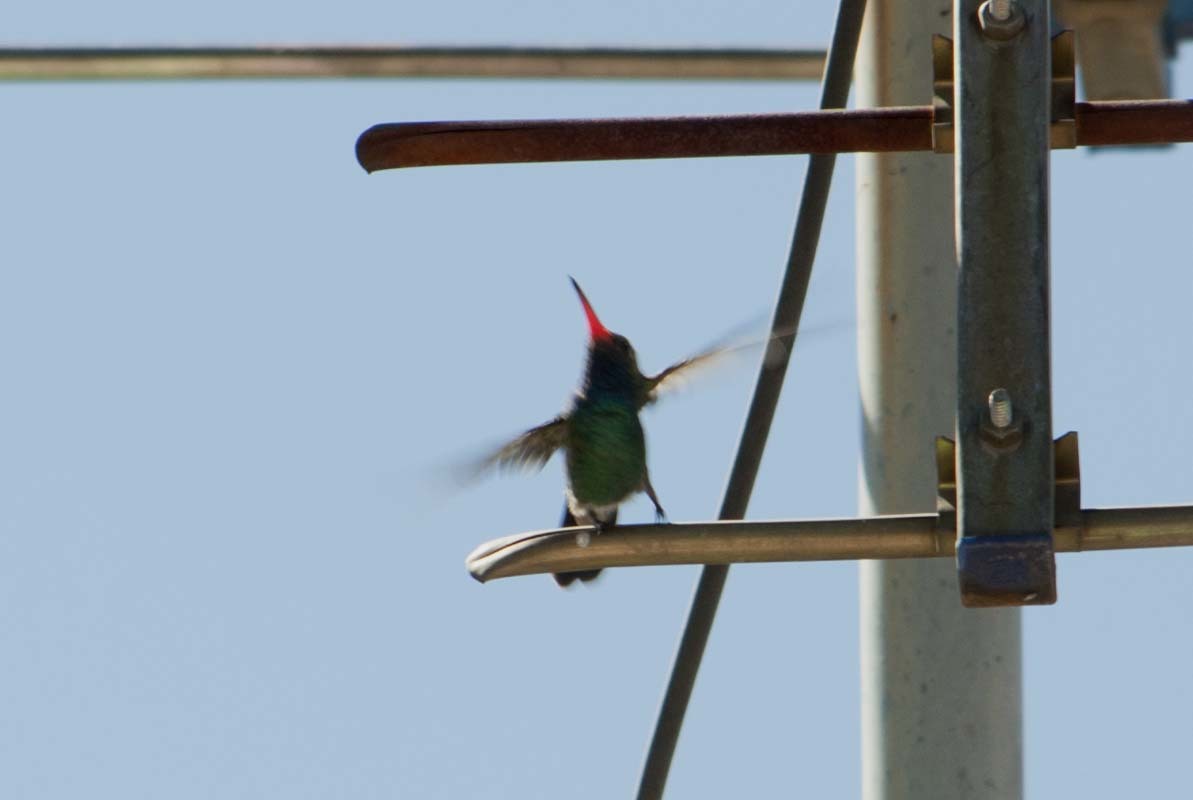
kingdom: Animalia
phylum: Chordata
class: Aves
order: Apodiformes
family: Trochilidae
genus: Cynanthus
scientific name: Cynanthus latirostris
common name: Broad-billed hummingbird
